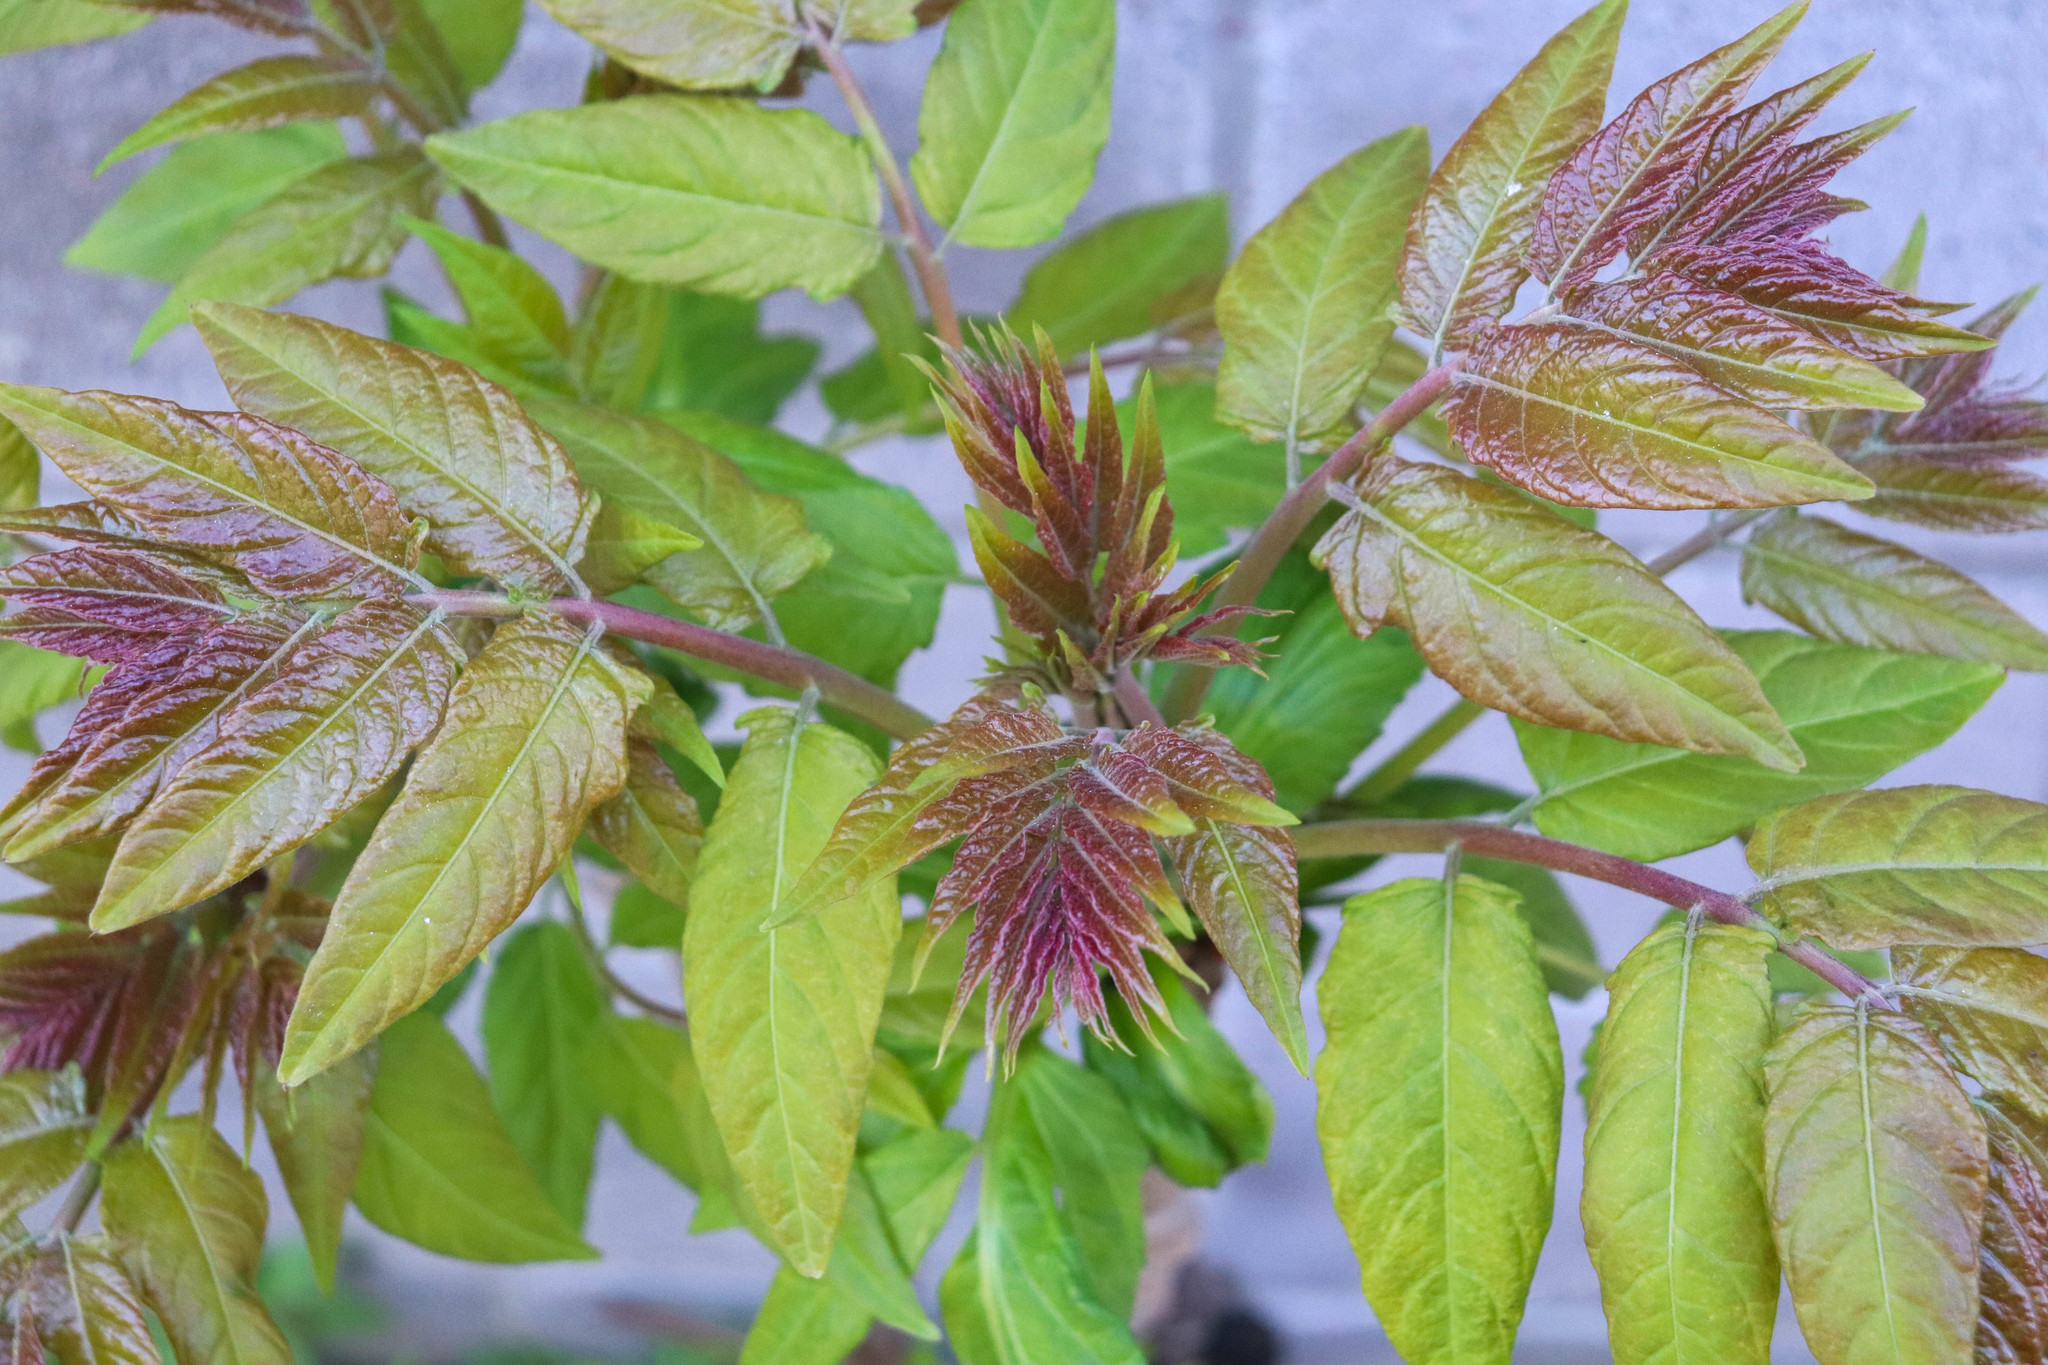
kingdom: Plantae
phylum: Tracheophyta
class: Magnoliopsida
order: Sapindales
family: Simaroubaceae
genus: Ailanthus
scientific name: Ailanthus altissima
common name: Tree-of-heaven
